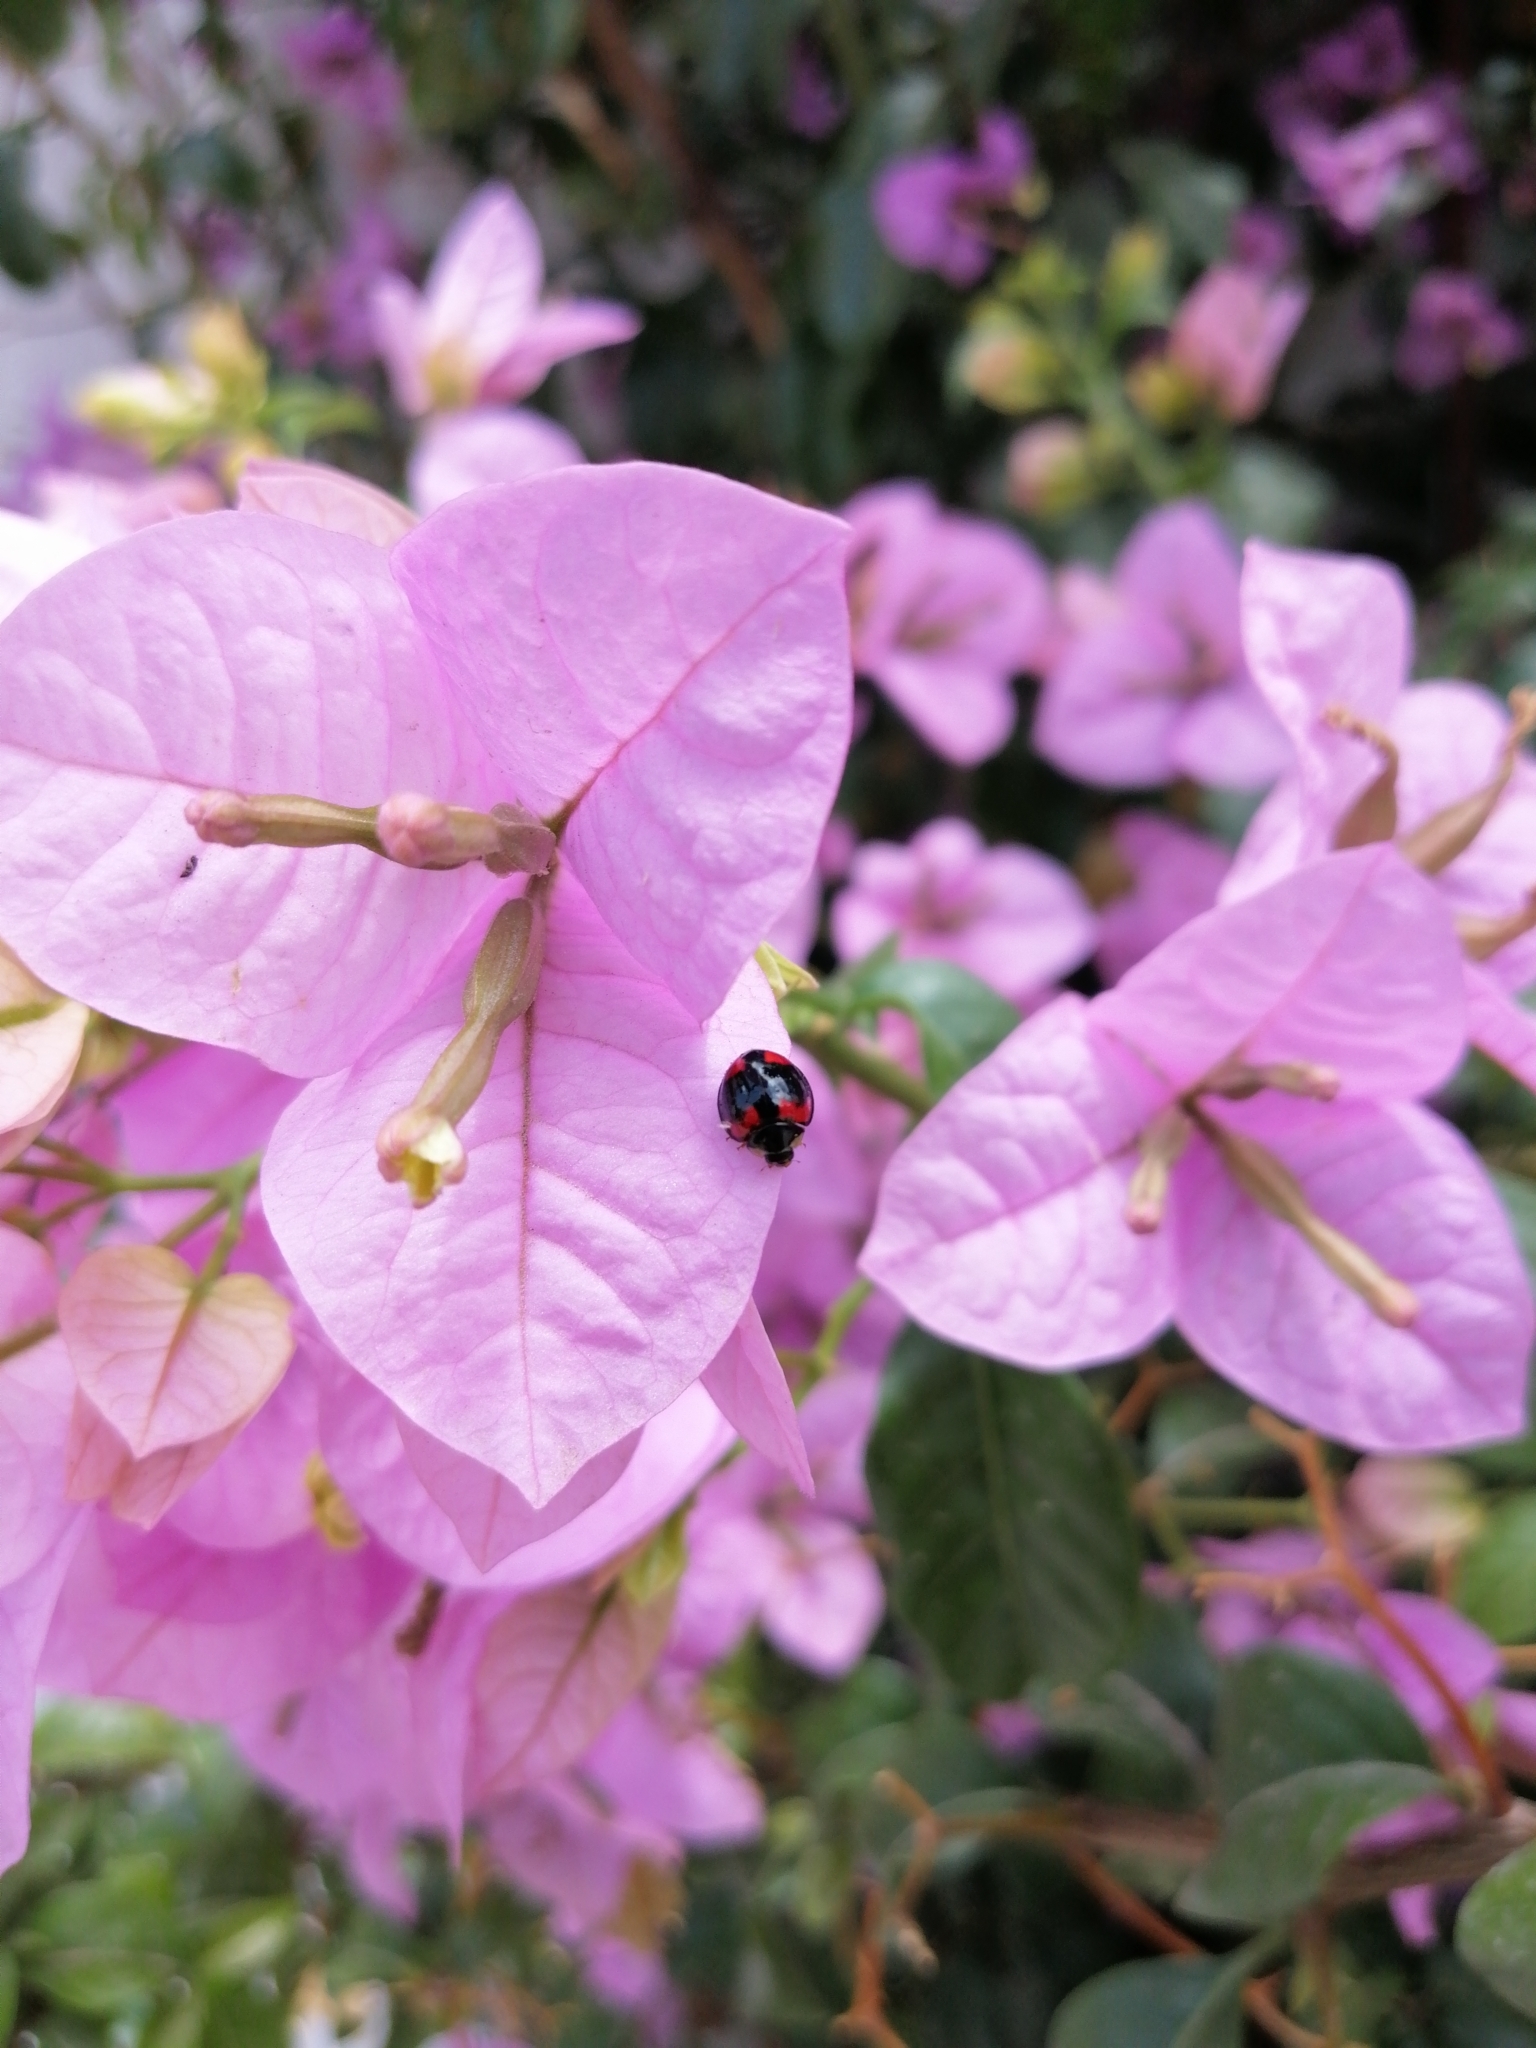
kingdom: Animalia
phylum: Arthropoda
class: Insecta
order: Coleoptera
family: Coccinellidae
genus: Cheilomenes
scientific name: Cheilomenes sexmaculata
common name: Ladybird beetle
